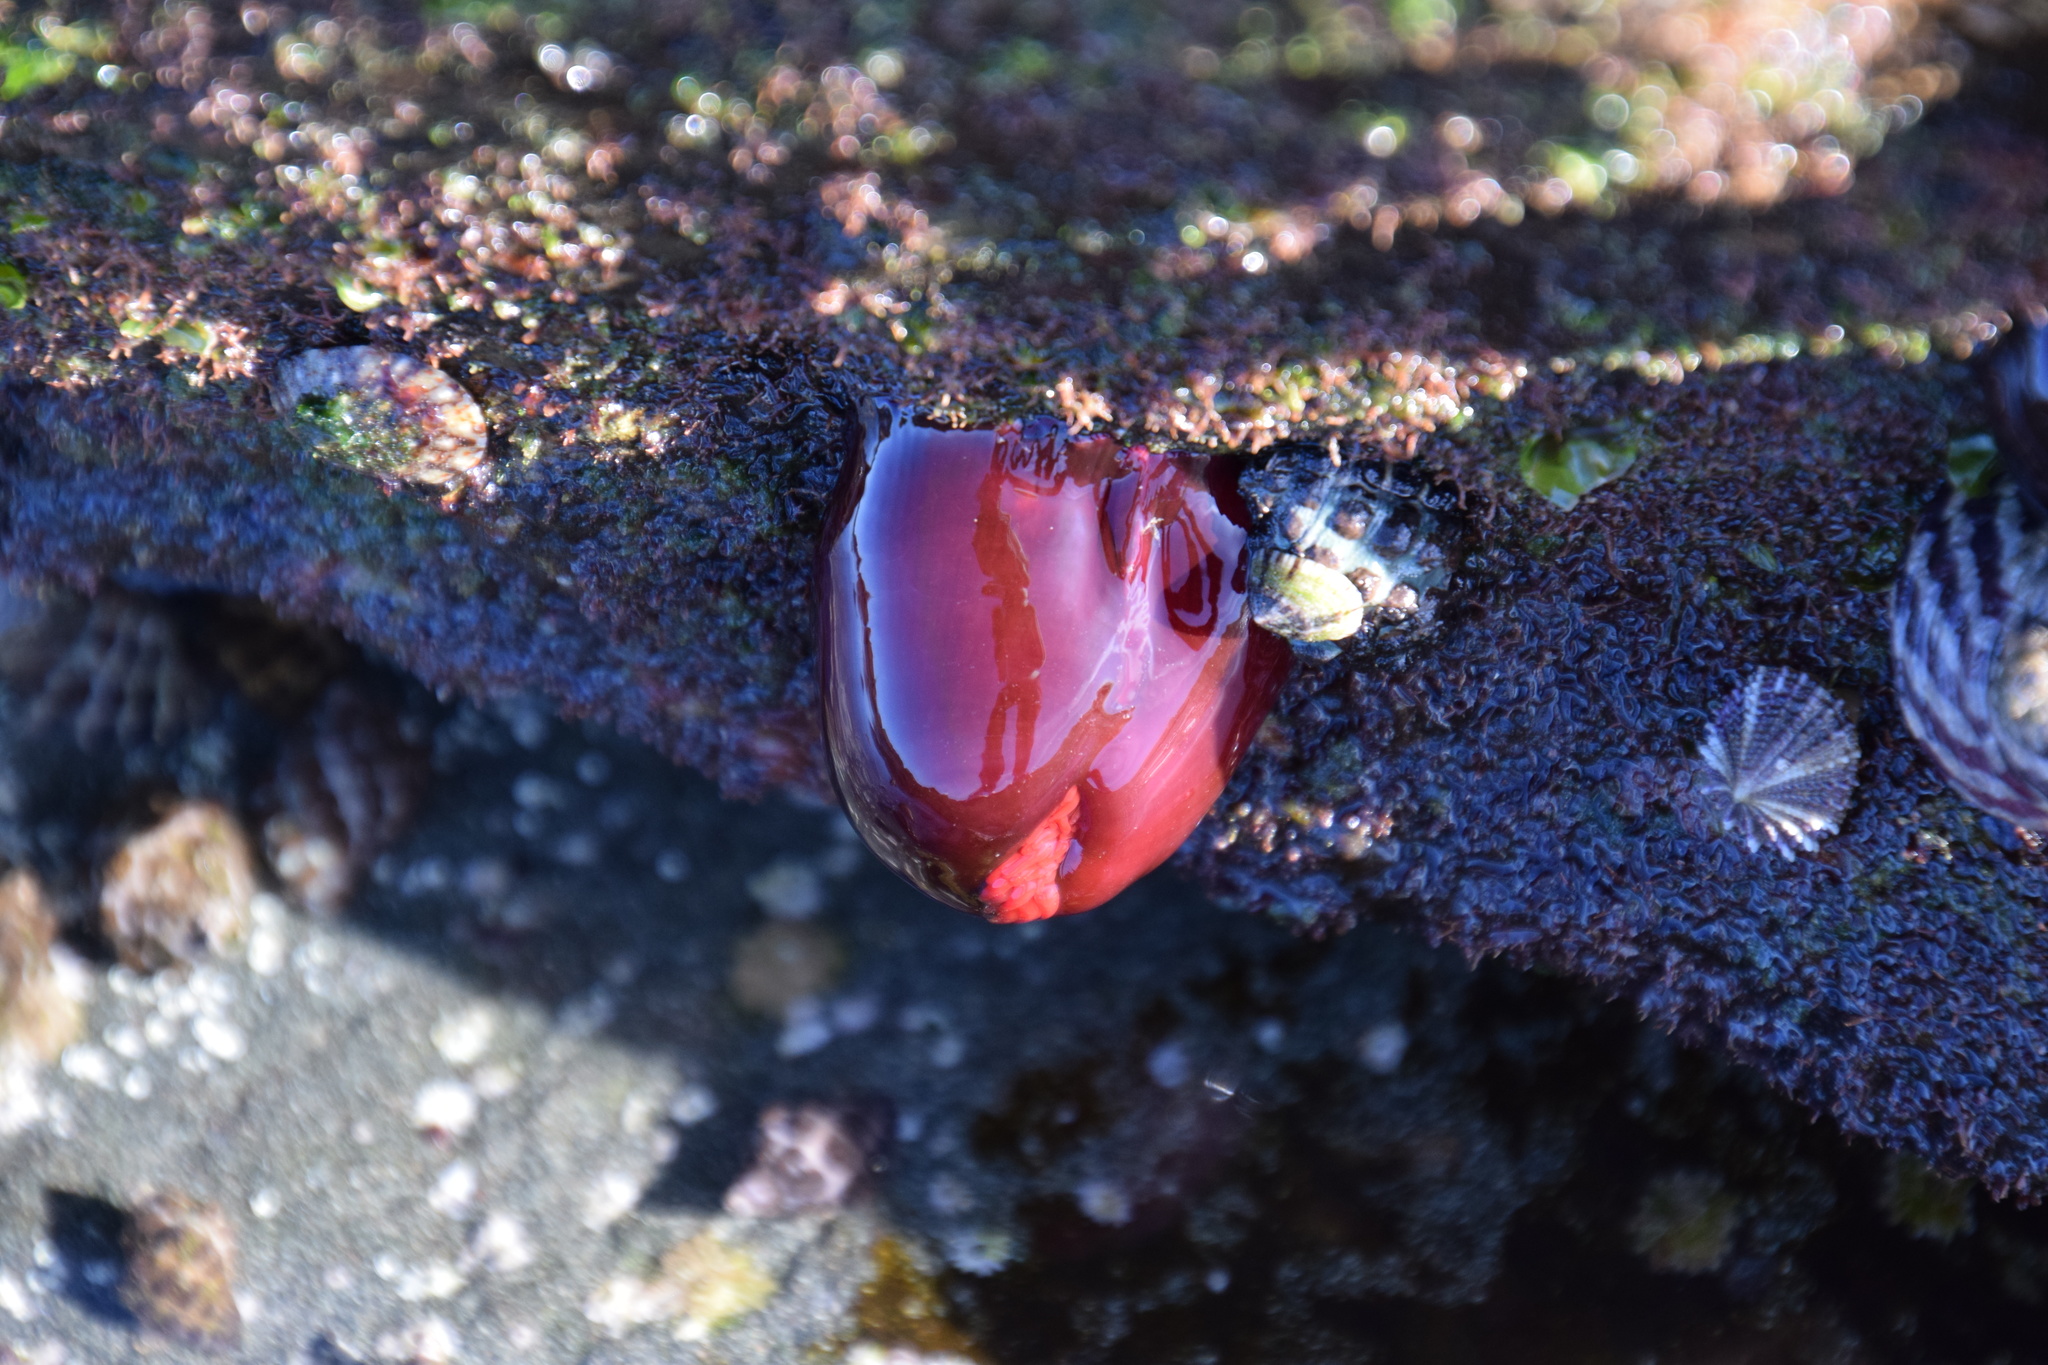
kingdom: Animalia
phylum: Cnidaria
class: Anthozoa
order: Actiniaria
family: Actiniidae
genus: Actinia
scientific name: Actinia tenebrosa
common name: Waratah anemone
